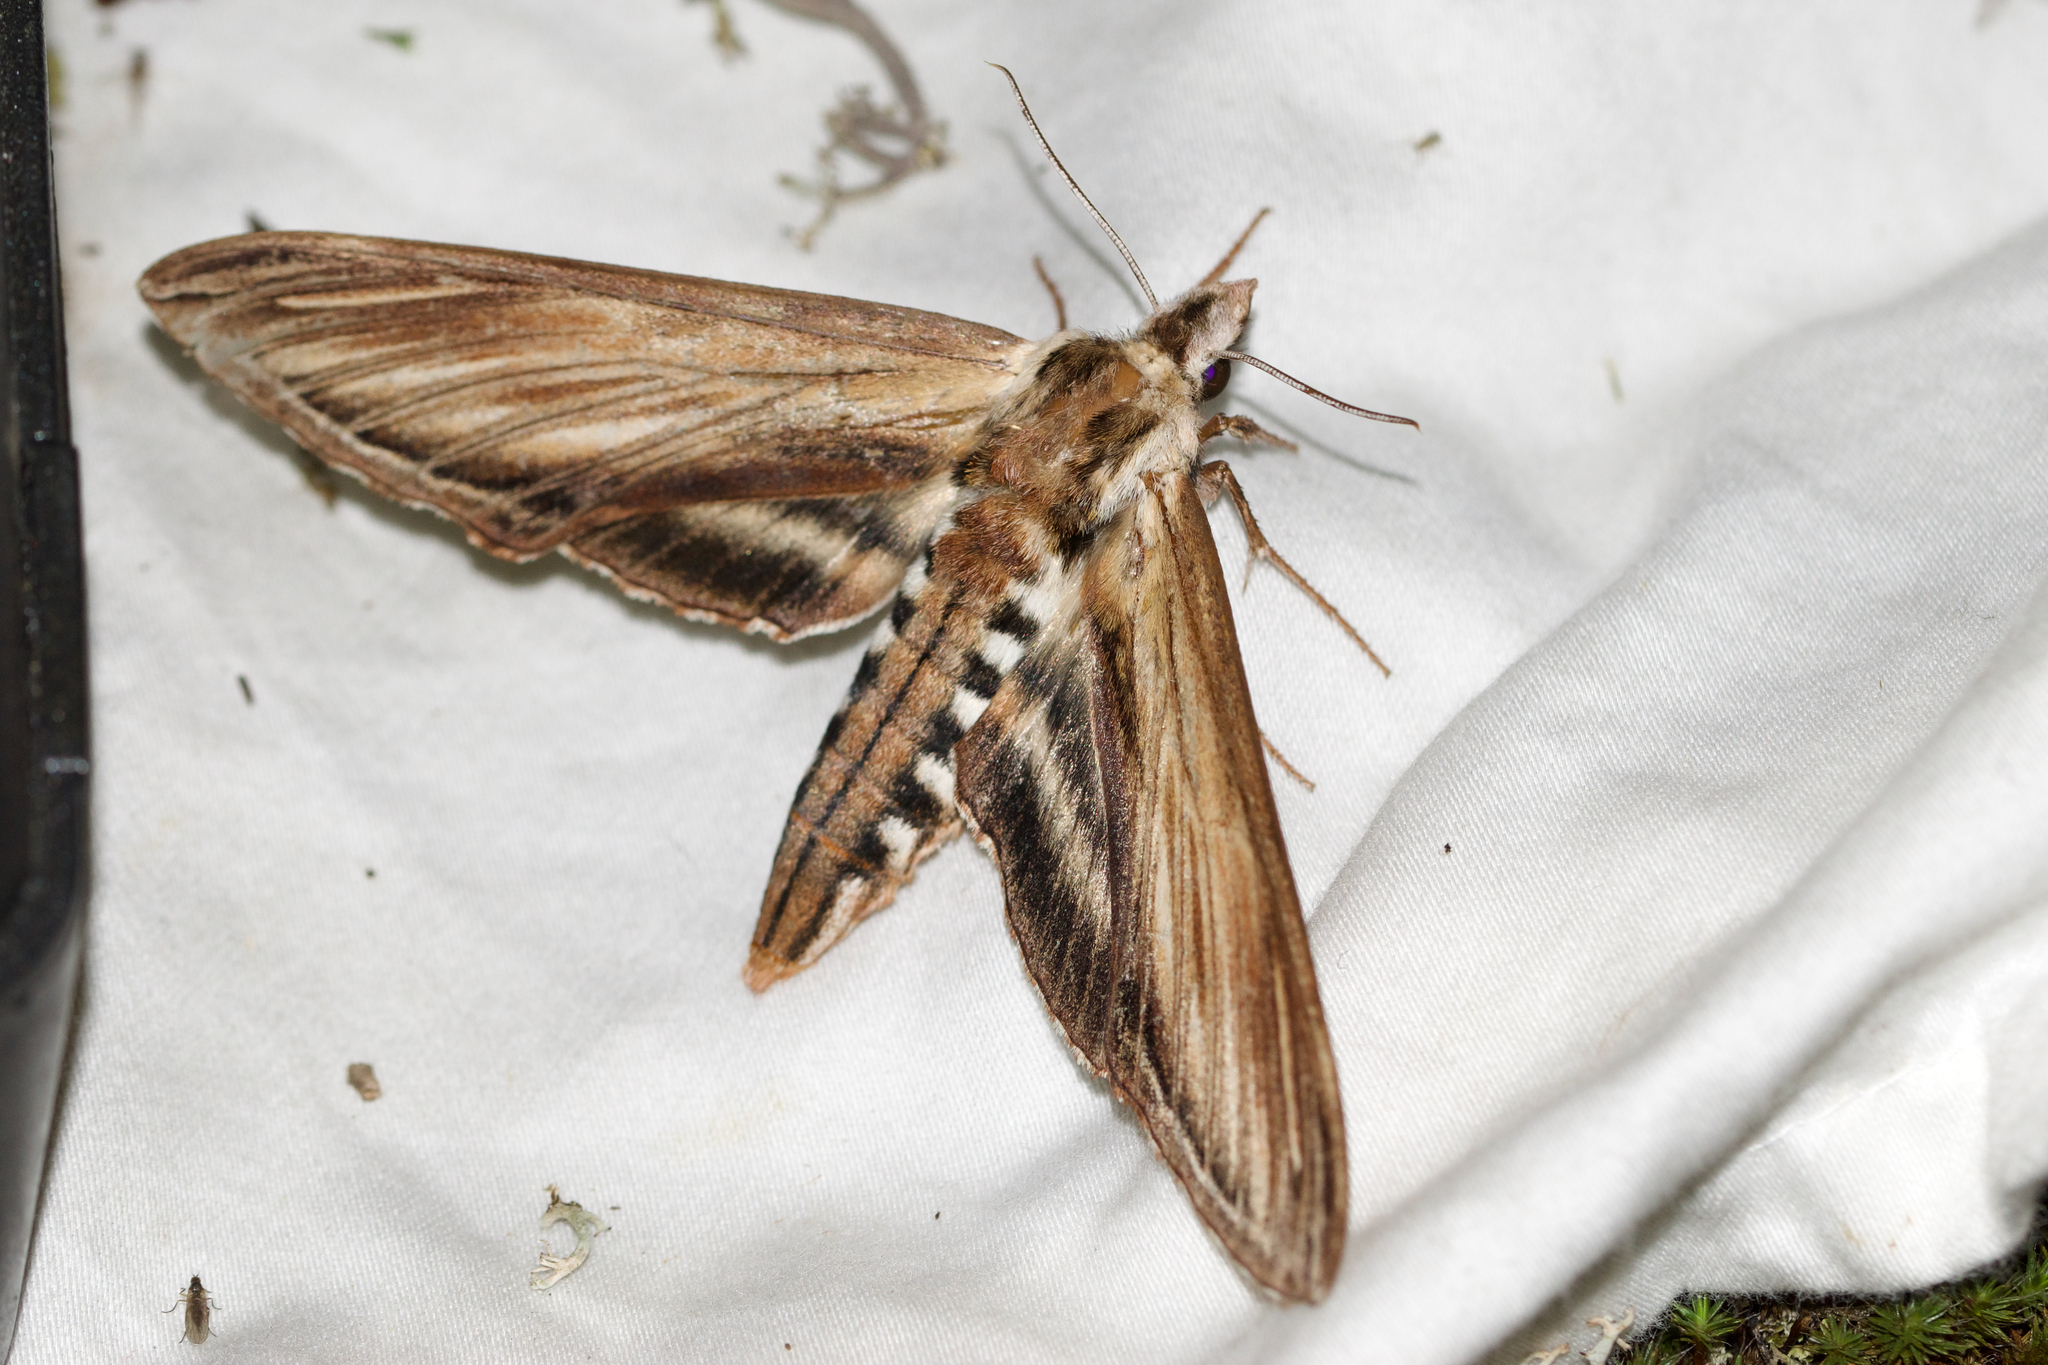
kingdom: Animalia
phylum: Arthropoda
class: Insecta
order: Lepidoptera
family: Sphingidae
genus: Sphinx
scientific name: Sphinx kalmiae
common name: Laurel sphinx
